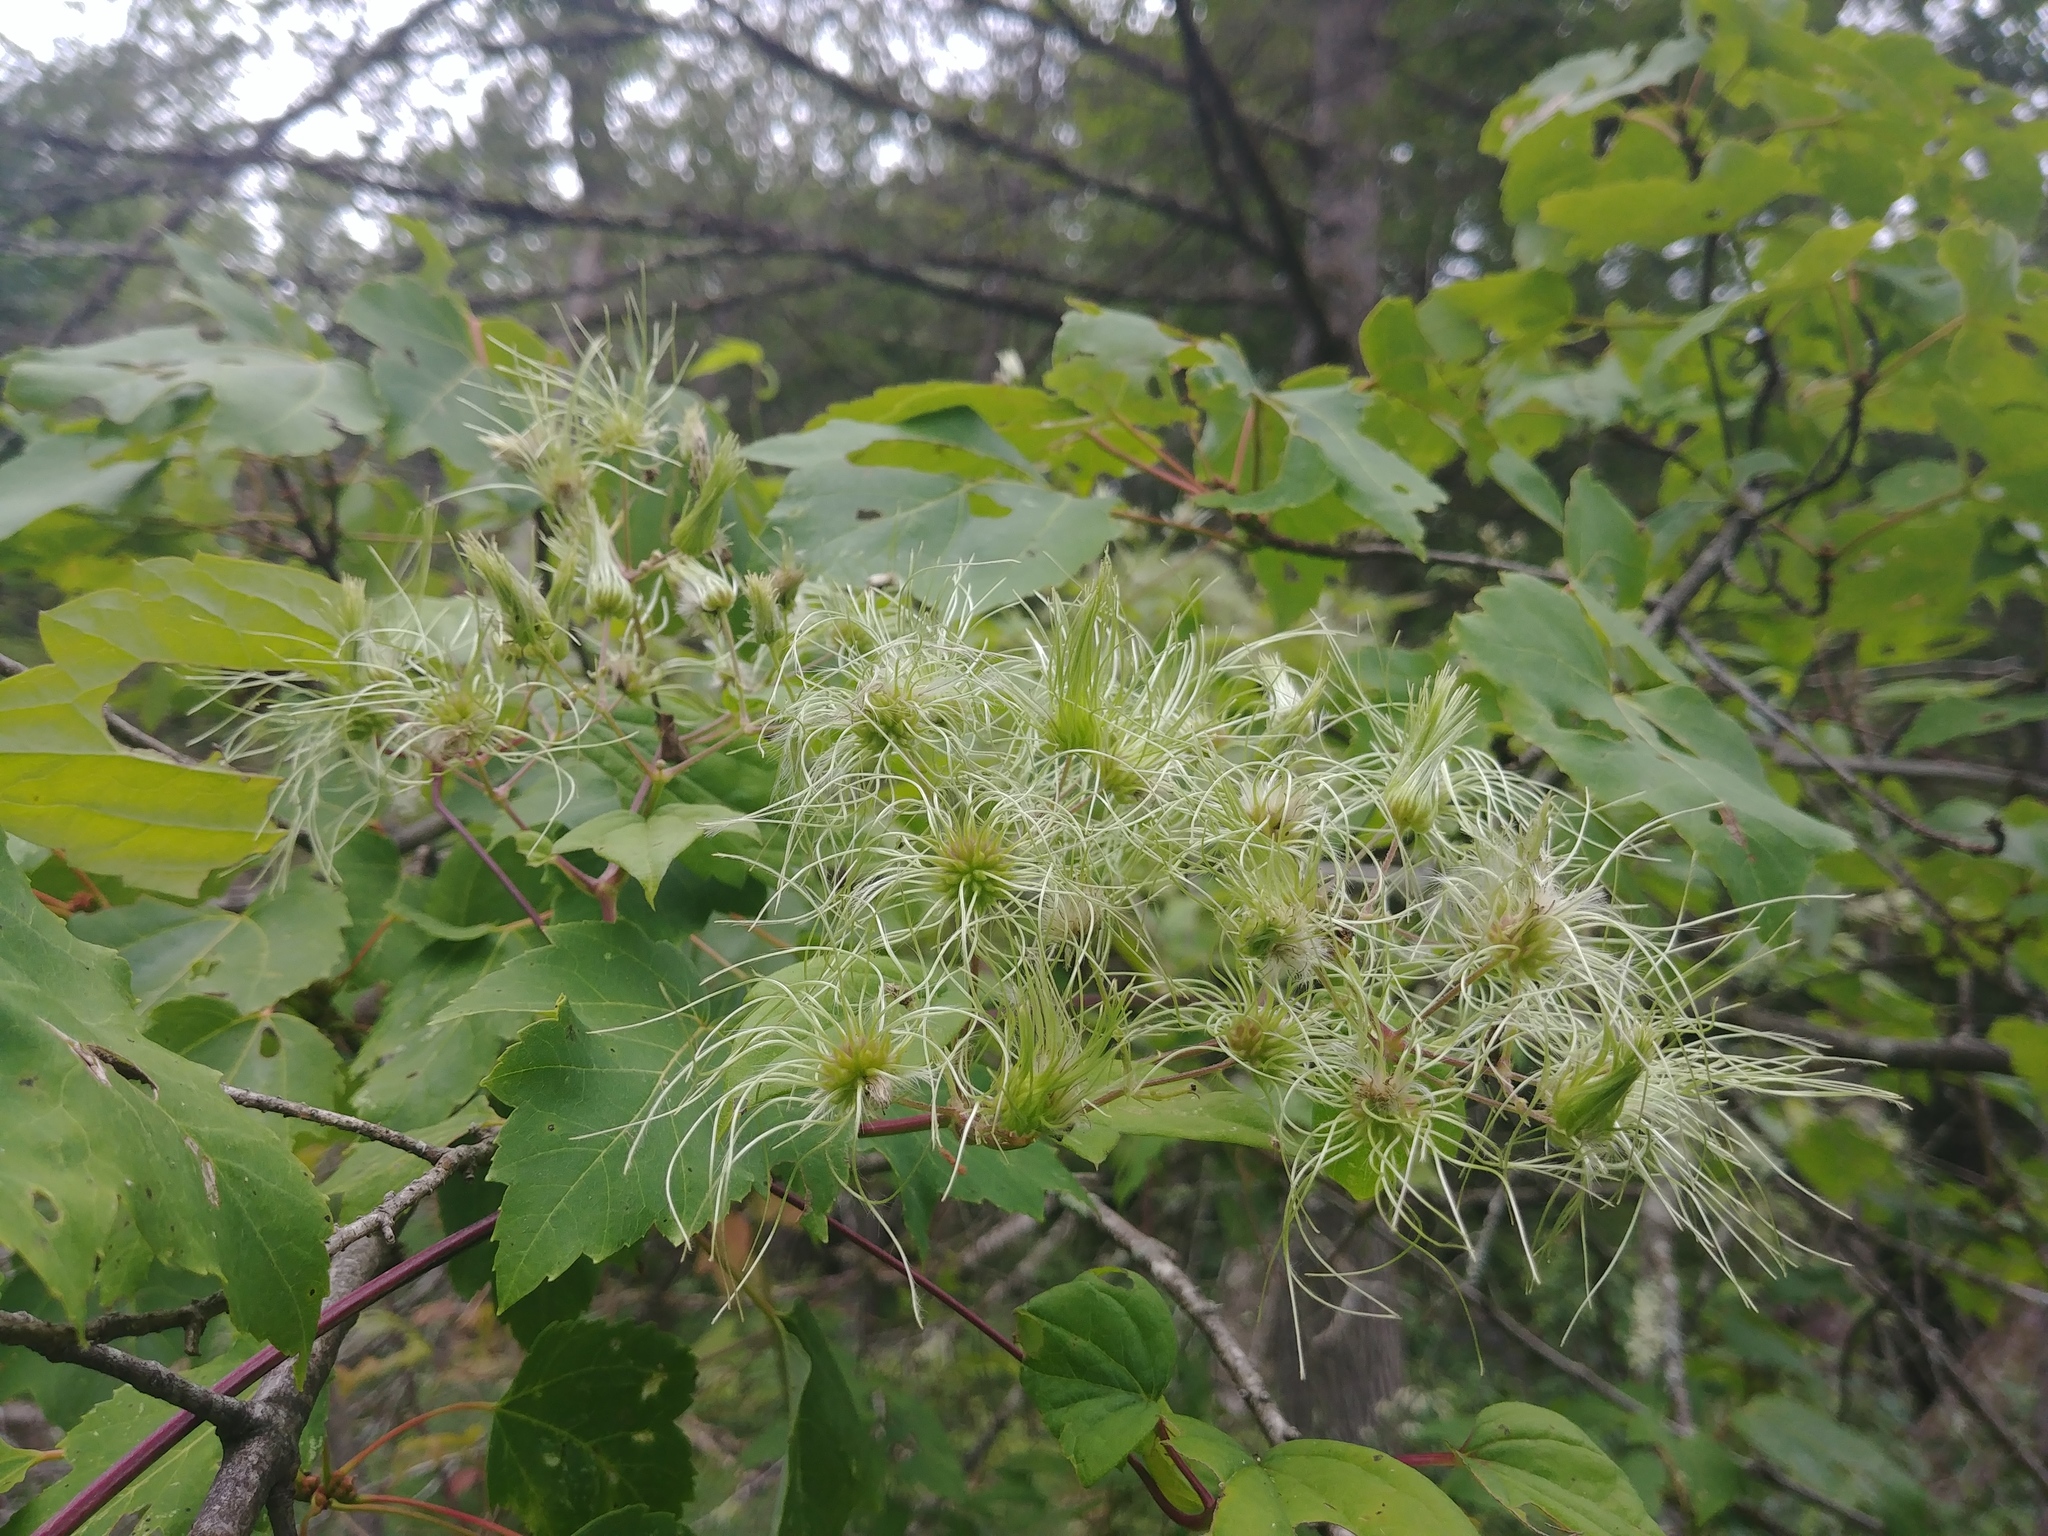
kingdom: Plantae
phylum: Tracheophyta
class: Magnoliopsida
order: Ranunculales
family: Ranunculaceae
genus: Clematis
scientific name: Clematis virginiana
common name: Virgin's-bower
